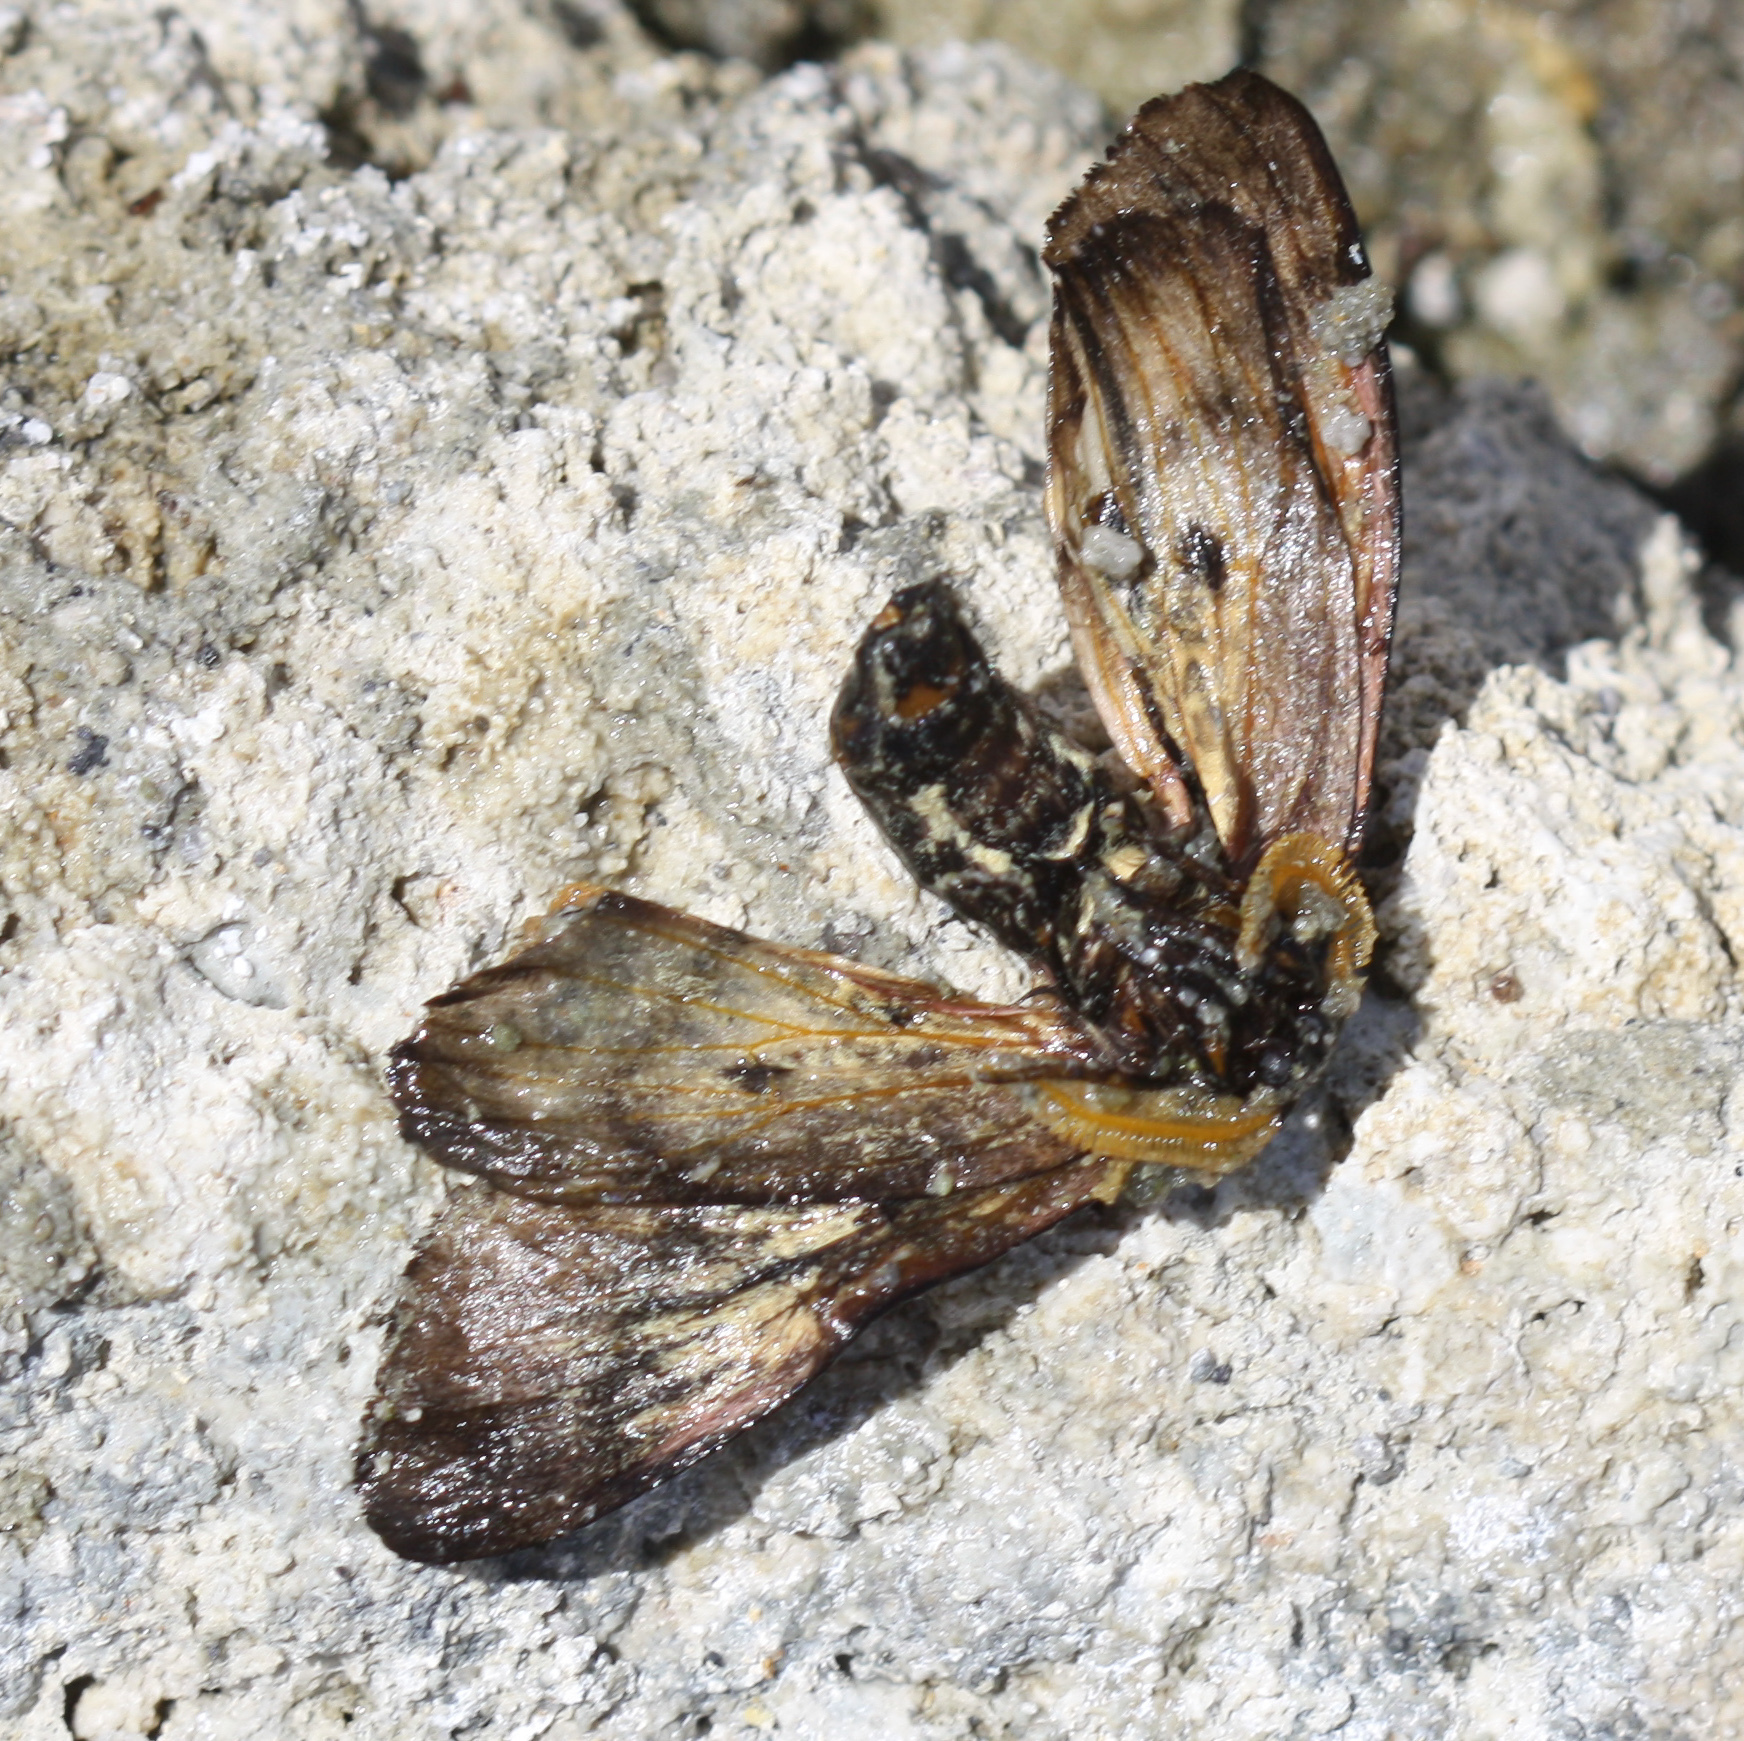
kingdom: Animalia
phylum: Arthropoda
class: Insecta
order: Lepidoptera
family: Saturniidae
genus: Coloradia
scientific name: Coloradia pandora
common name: Pandora pinemoth
